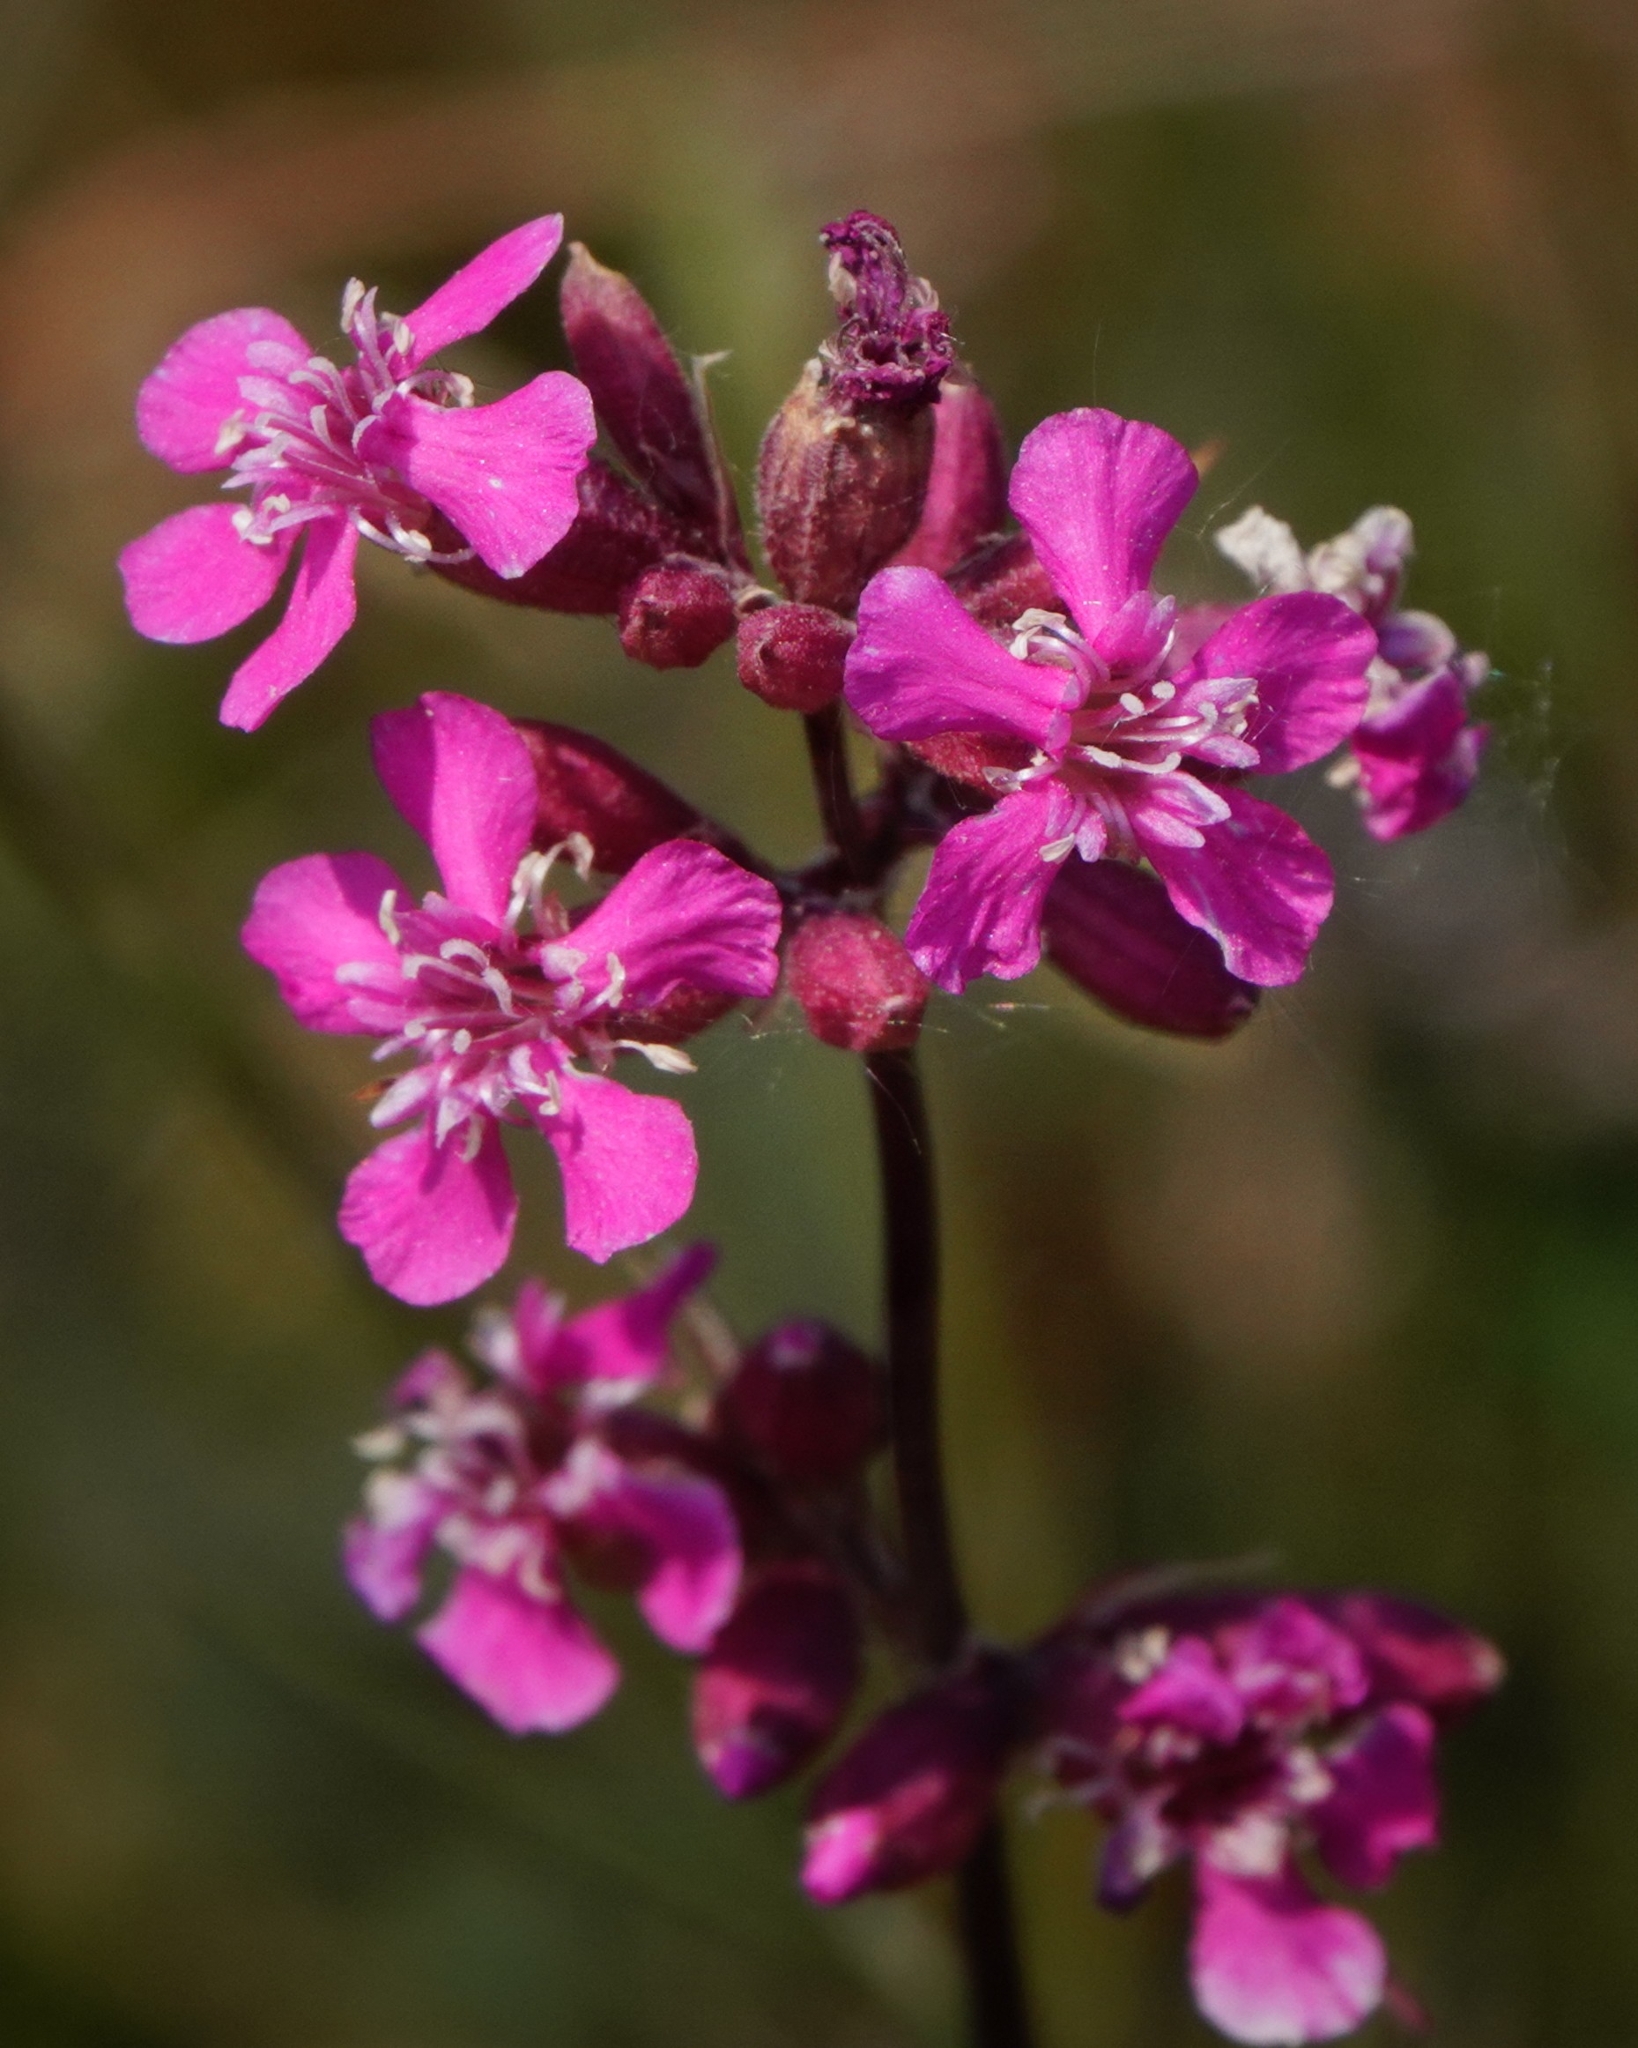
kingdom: Plantae
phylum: Tracheophyta
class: Magnoliopsida
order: Caryophyllales
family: Caryophyllaceae
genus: Viscaria
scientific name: Viscaria vulgaris
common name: Clammy campion
